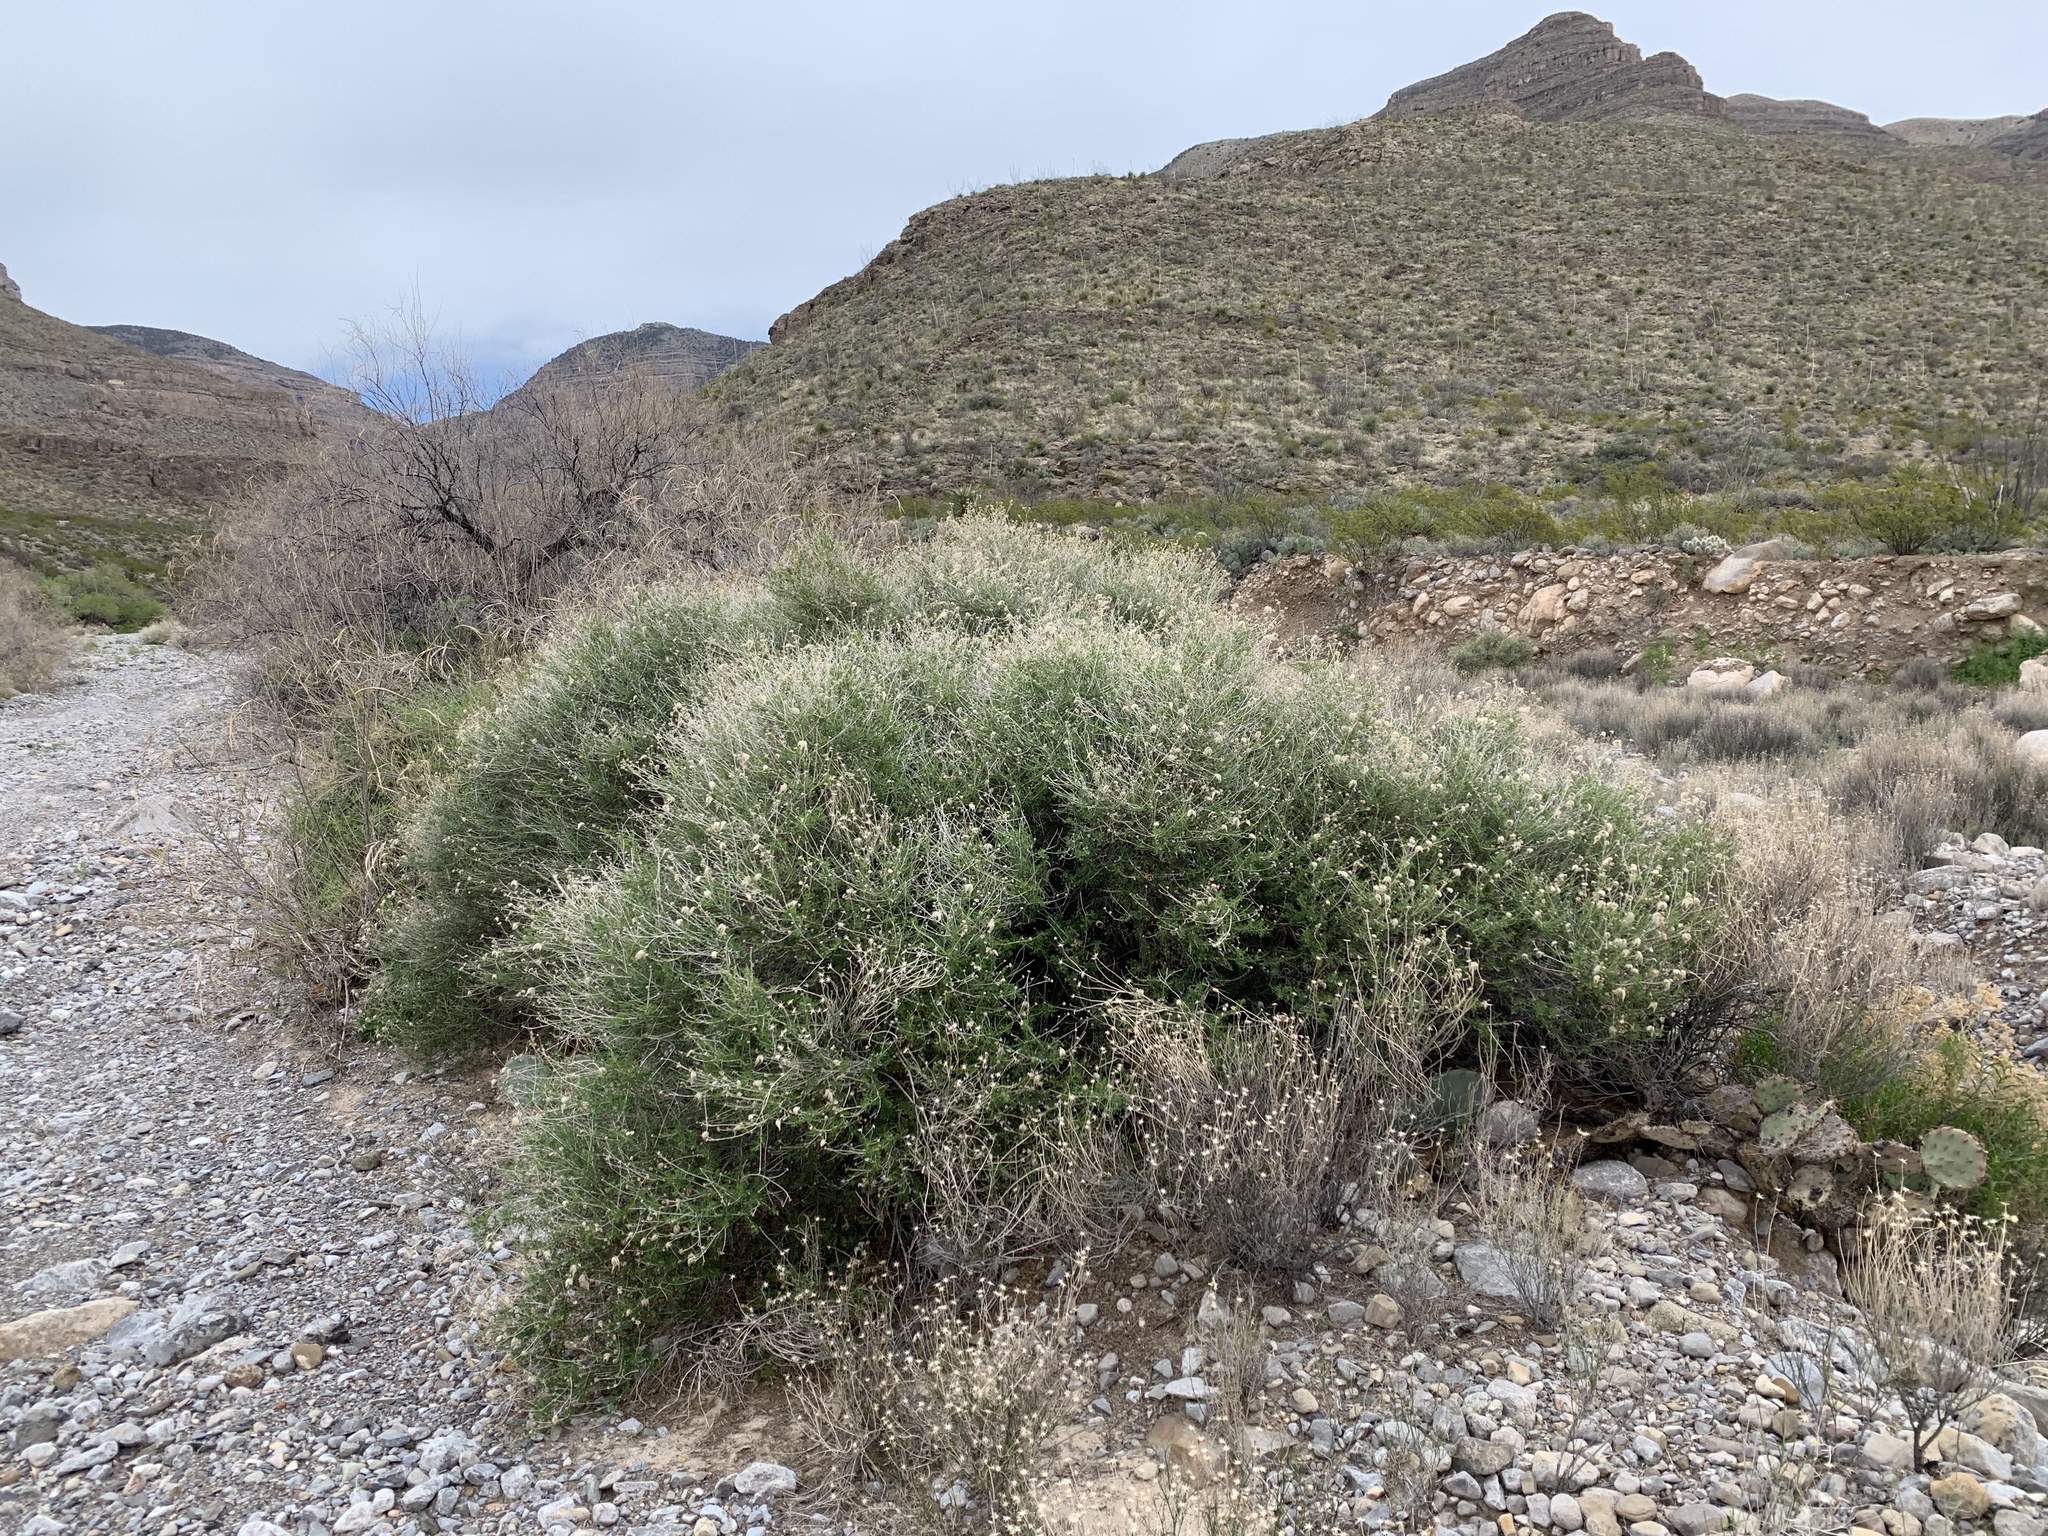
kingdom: Plantae
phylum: Tracheophyta
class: Magnoliopsida
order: Rosales
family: Rosaceae
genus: Fallugia
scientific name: Fallugia paradoxa
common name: Apache-plume
